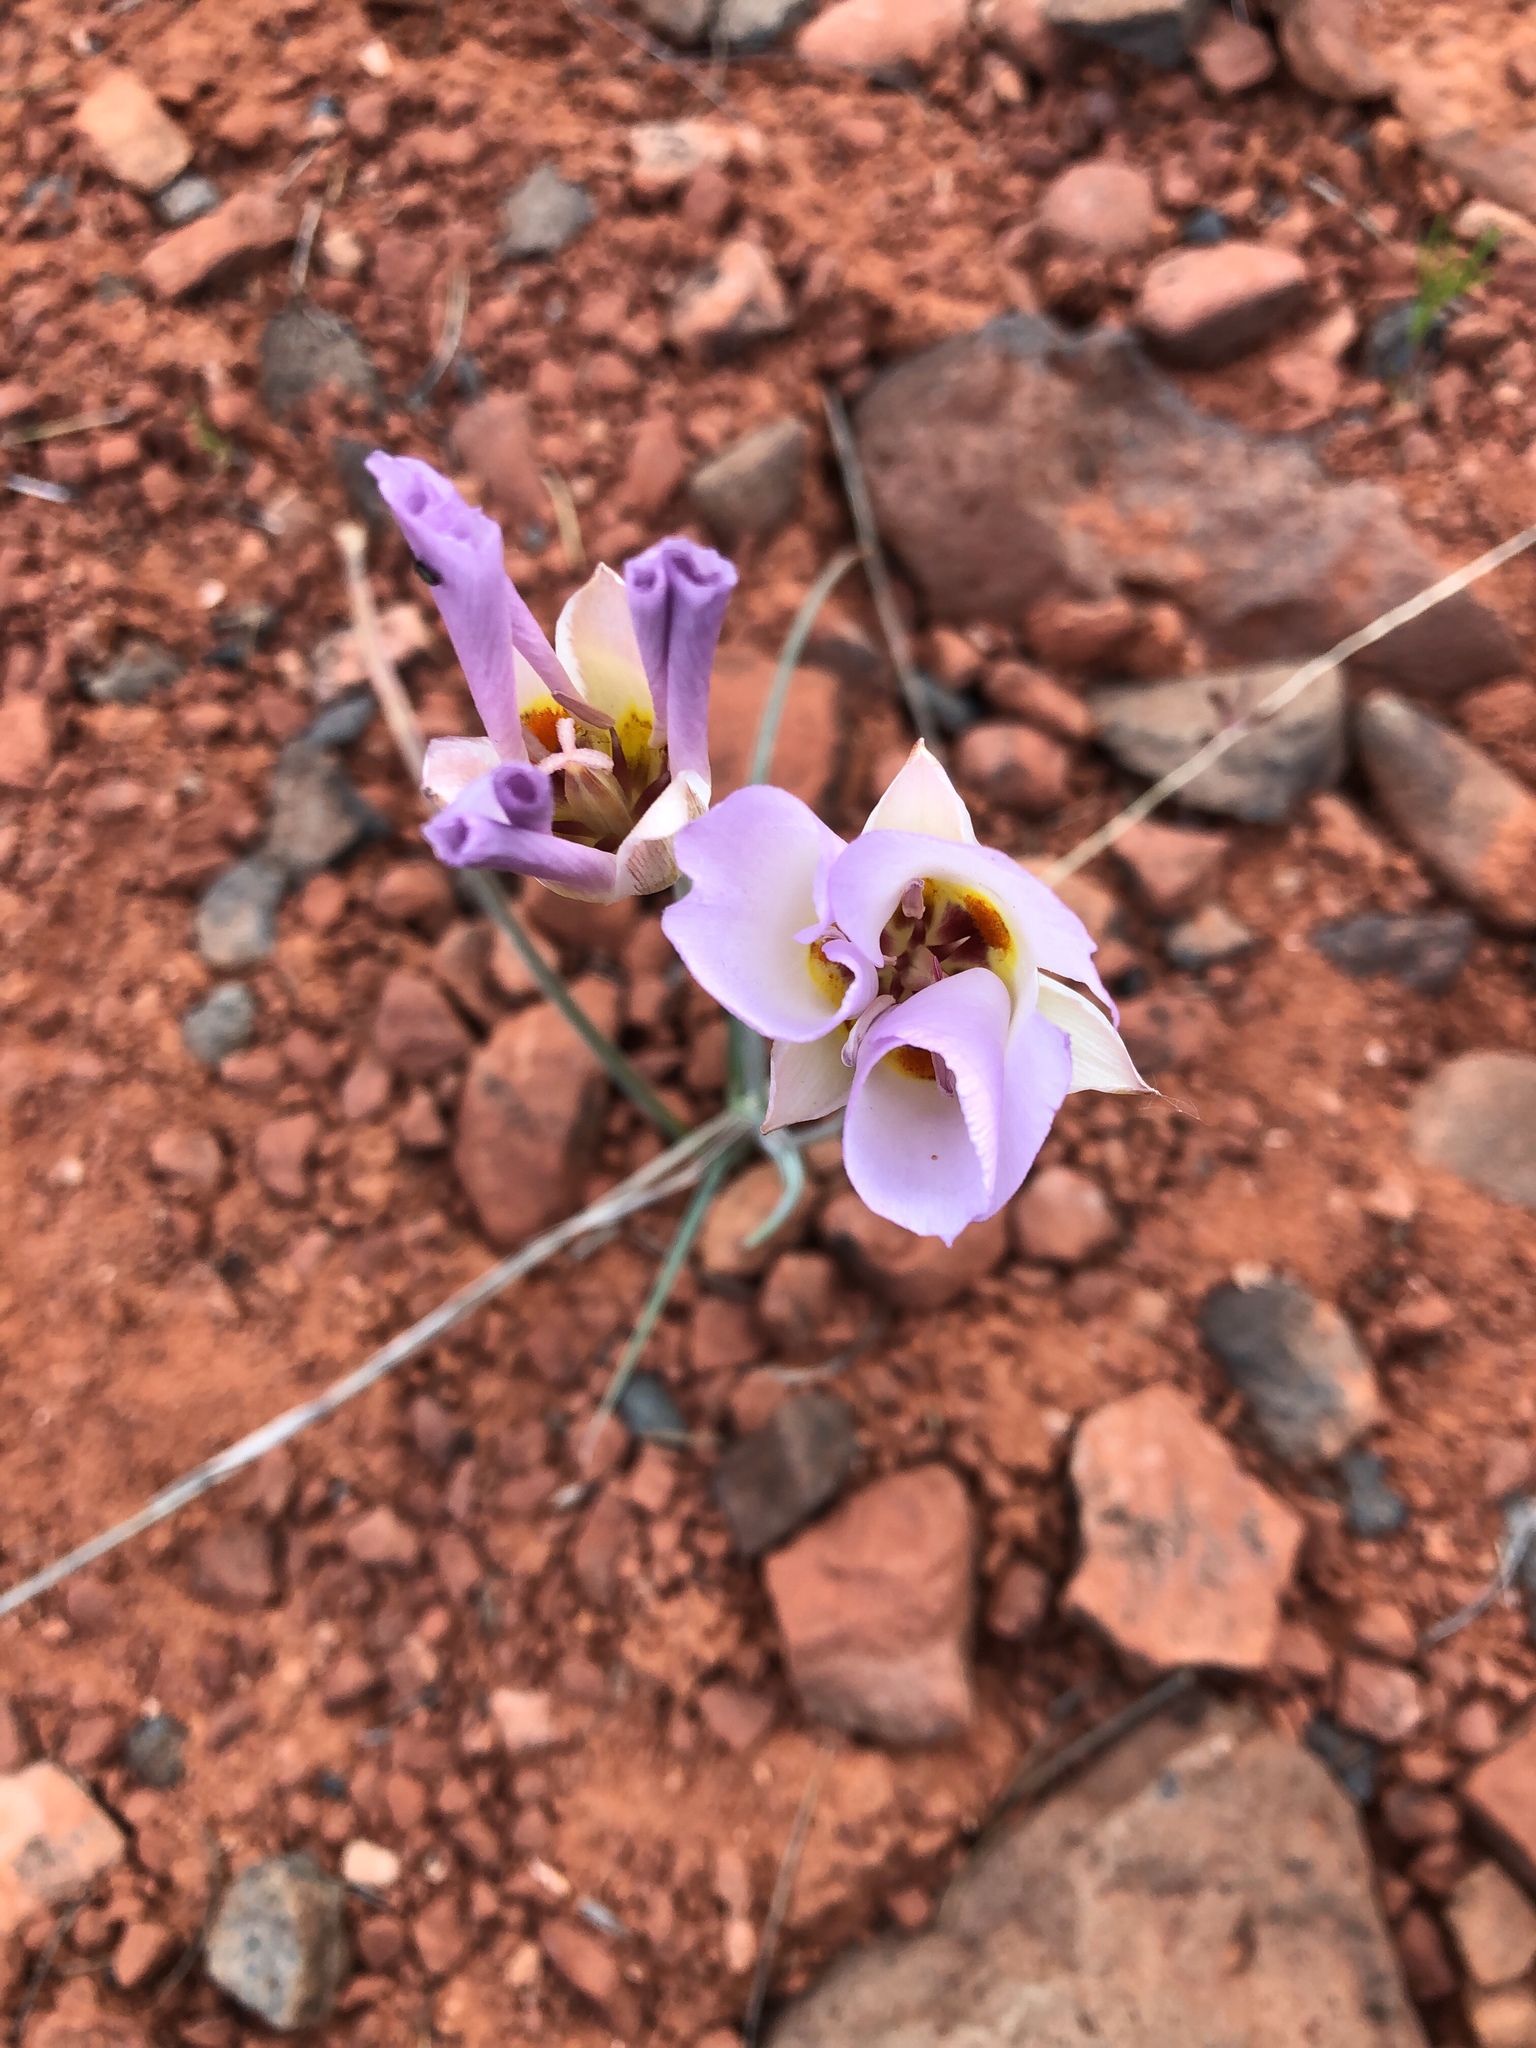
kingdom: Plantae
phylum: Tracheophyta
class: Liliopsida
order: Liliales
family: Liliaceae
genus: Calochortus
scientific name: Calochortus flexuosus
